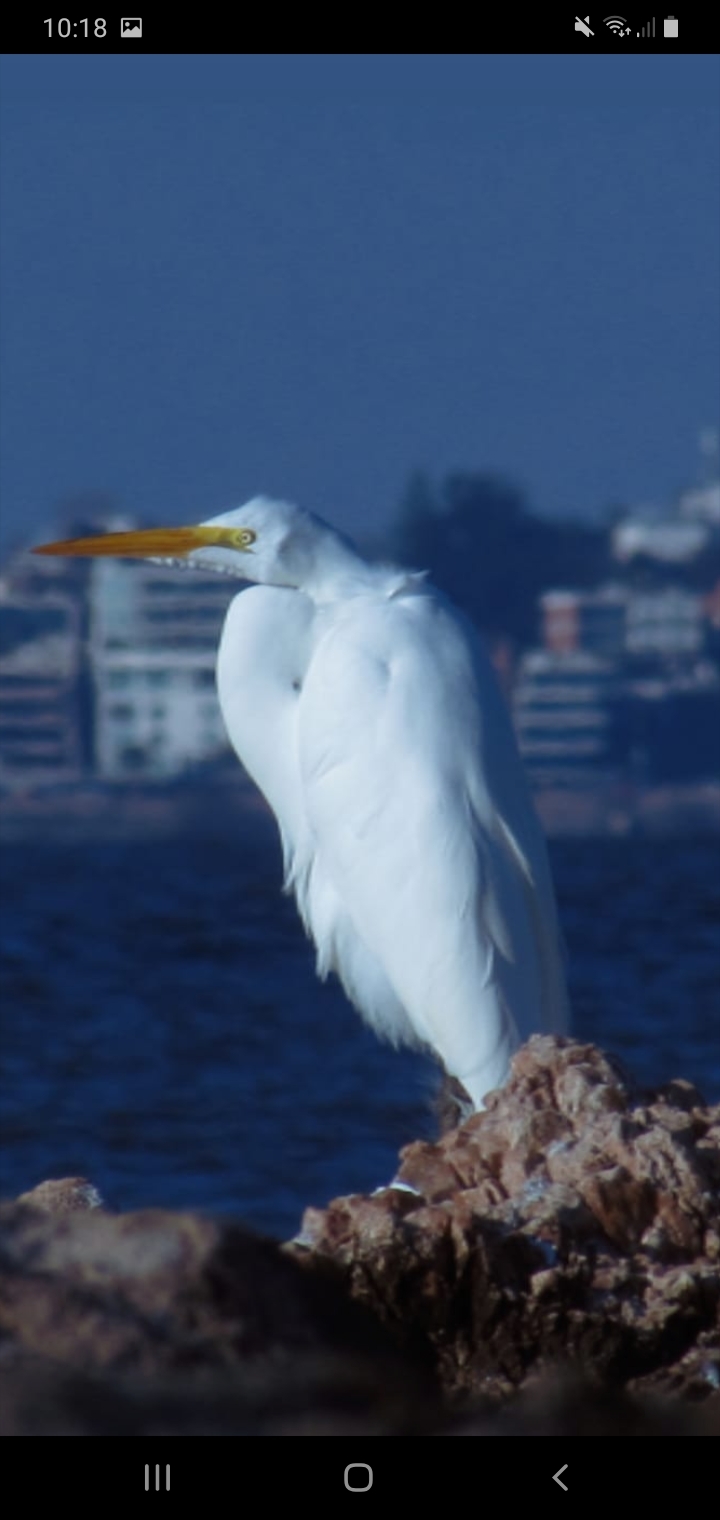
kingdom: Animalia
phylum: Chordata
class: Aves
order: Pelecaniformes
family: Ardeidae
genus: Ardea
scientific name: Ardea alba
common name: Great egret
